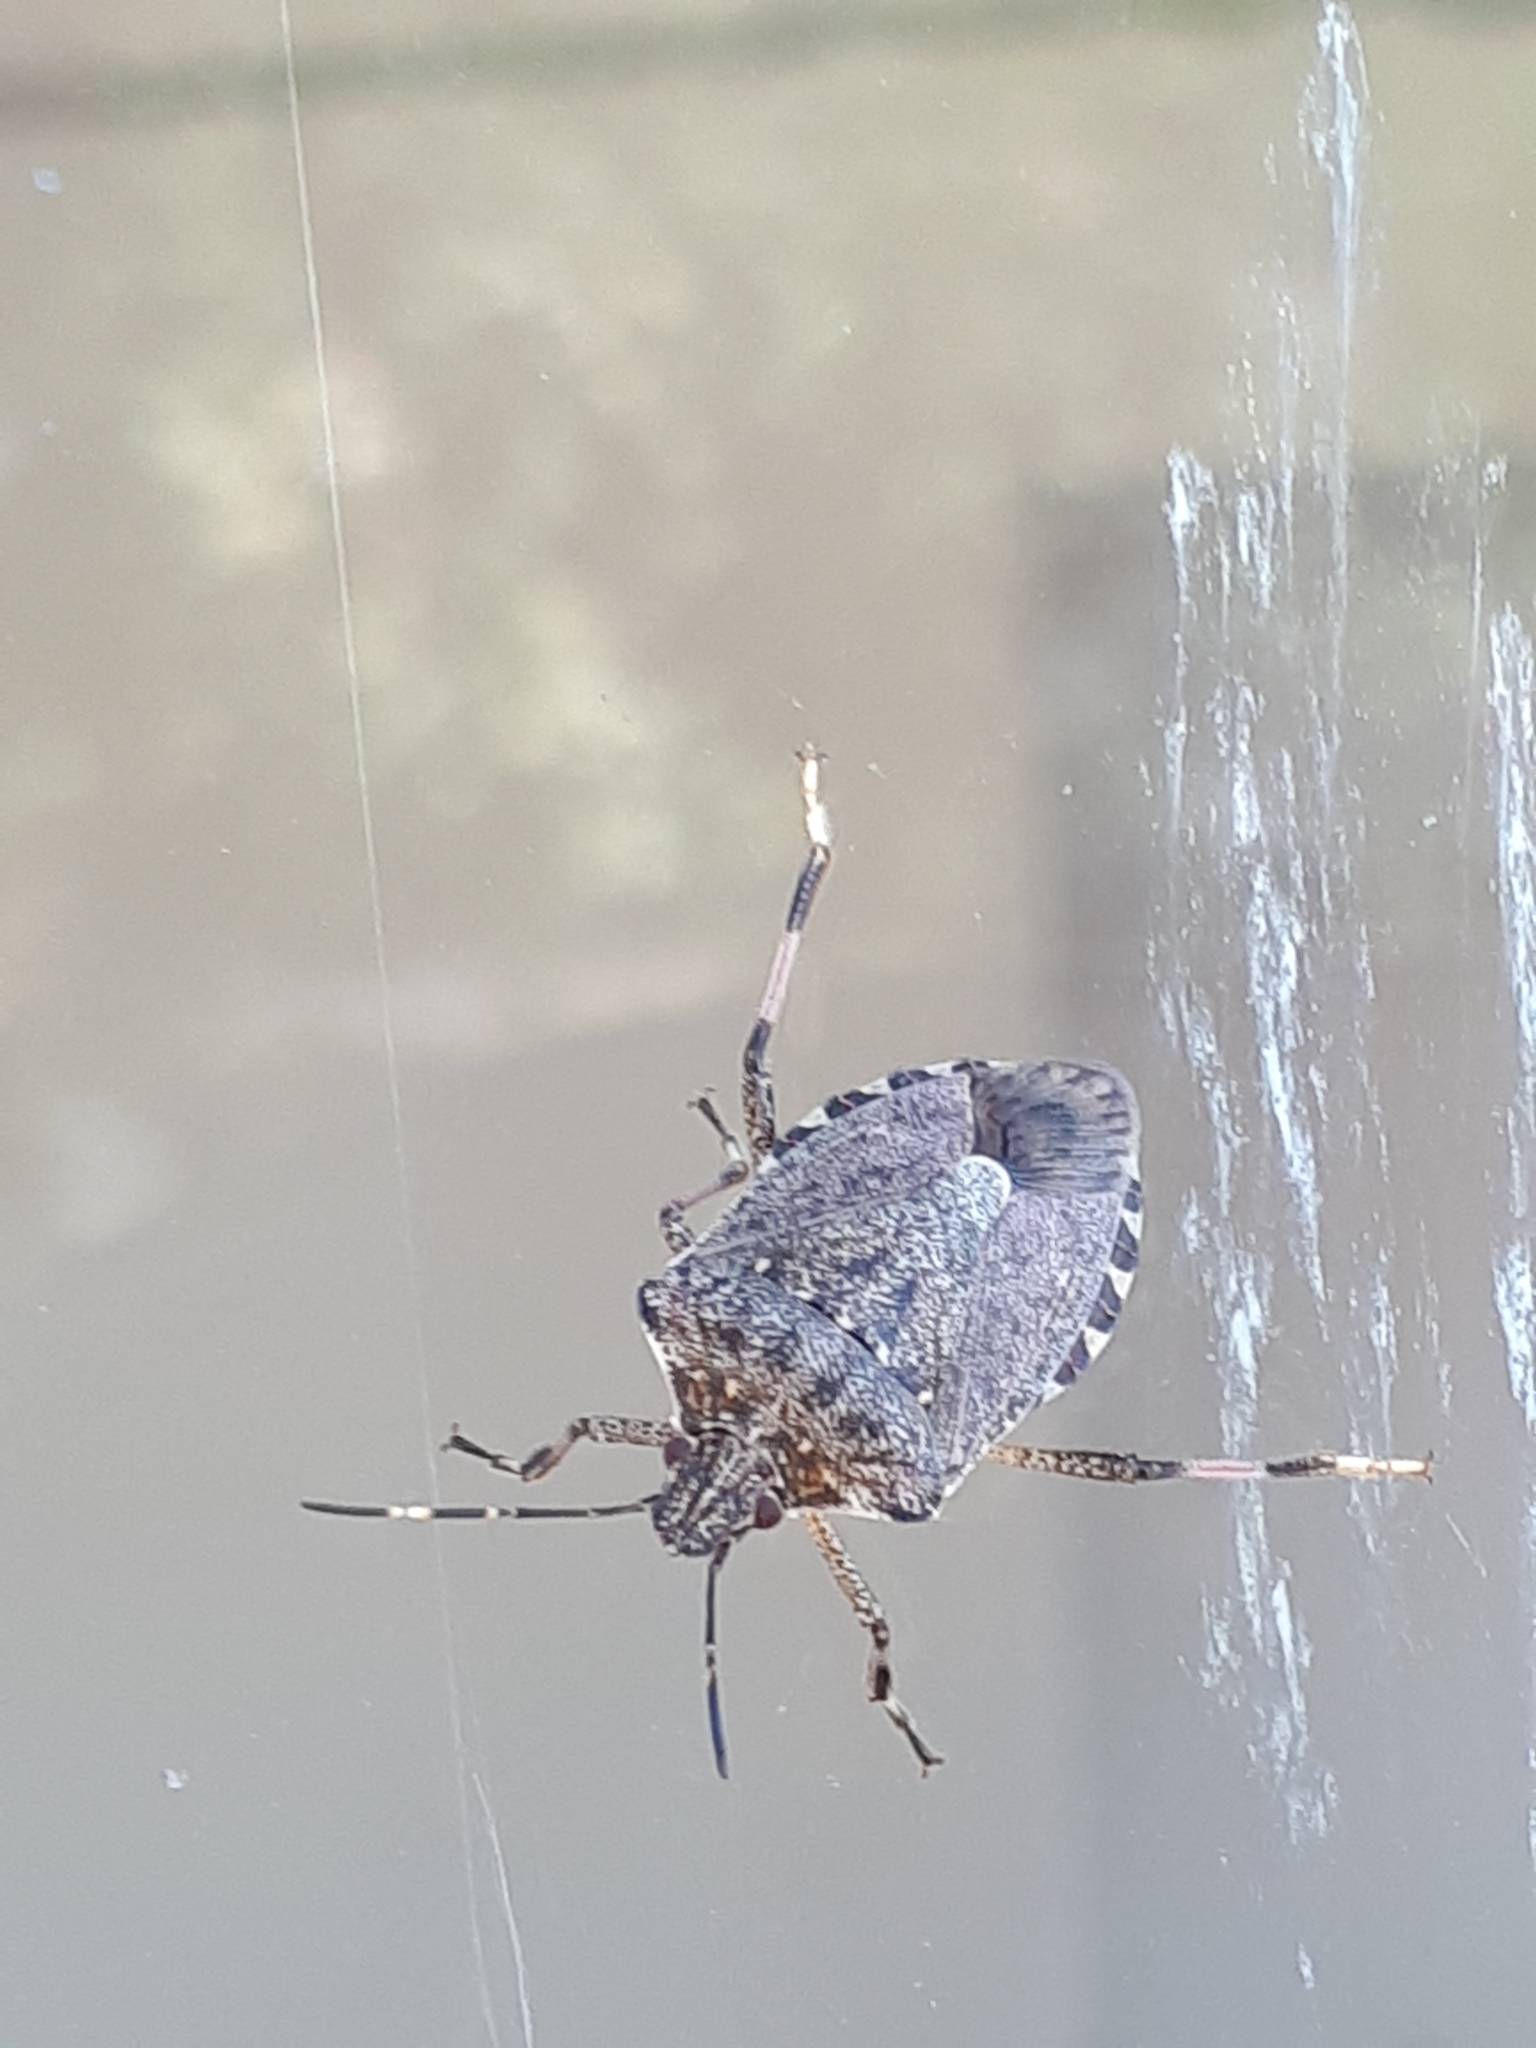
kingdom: Animalia
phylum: Arthropoda
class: Insecta
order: Hemiptera
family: Pentatomidae
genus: Halyomorpha
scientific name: Halyomorpha halys
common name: Brown marmorated stink bug
